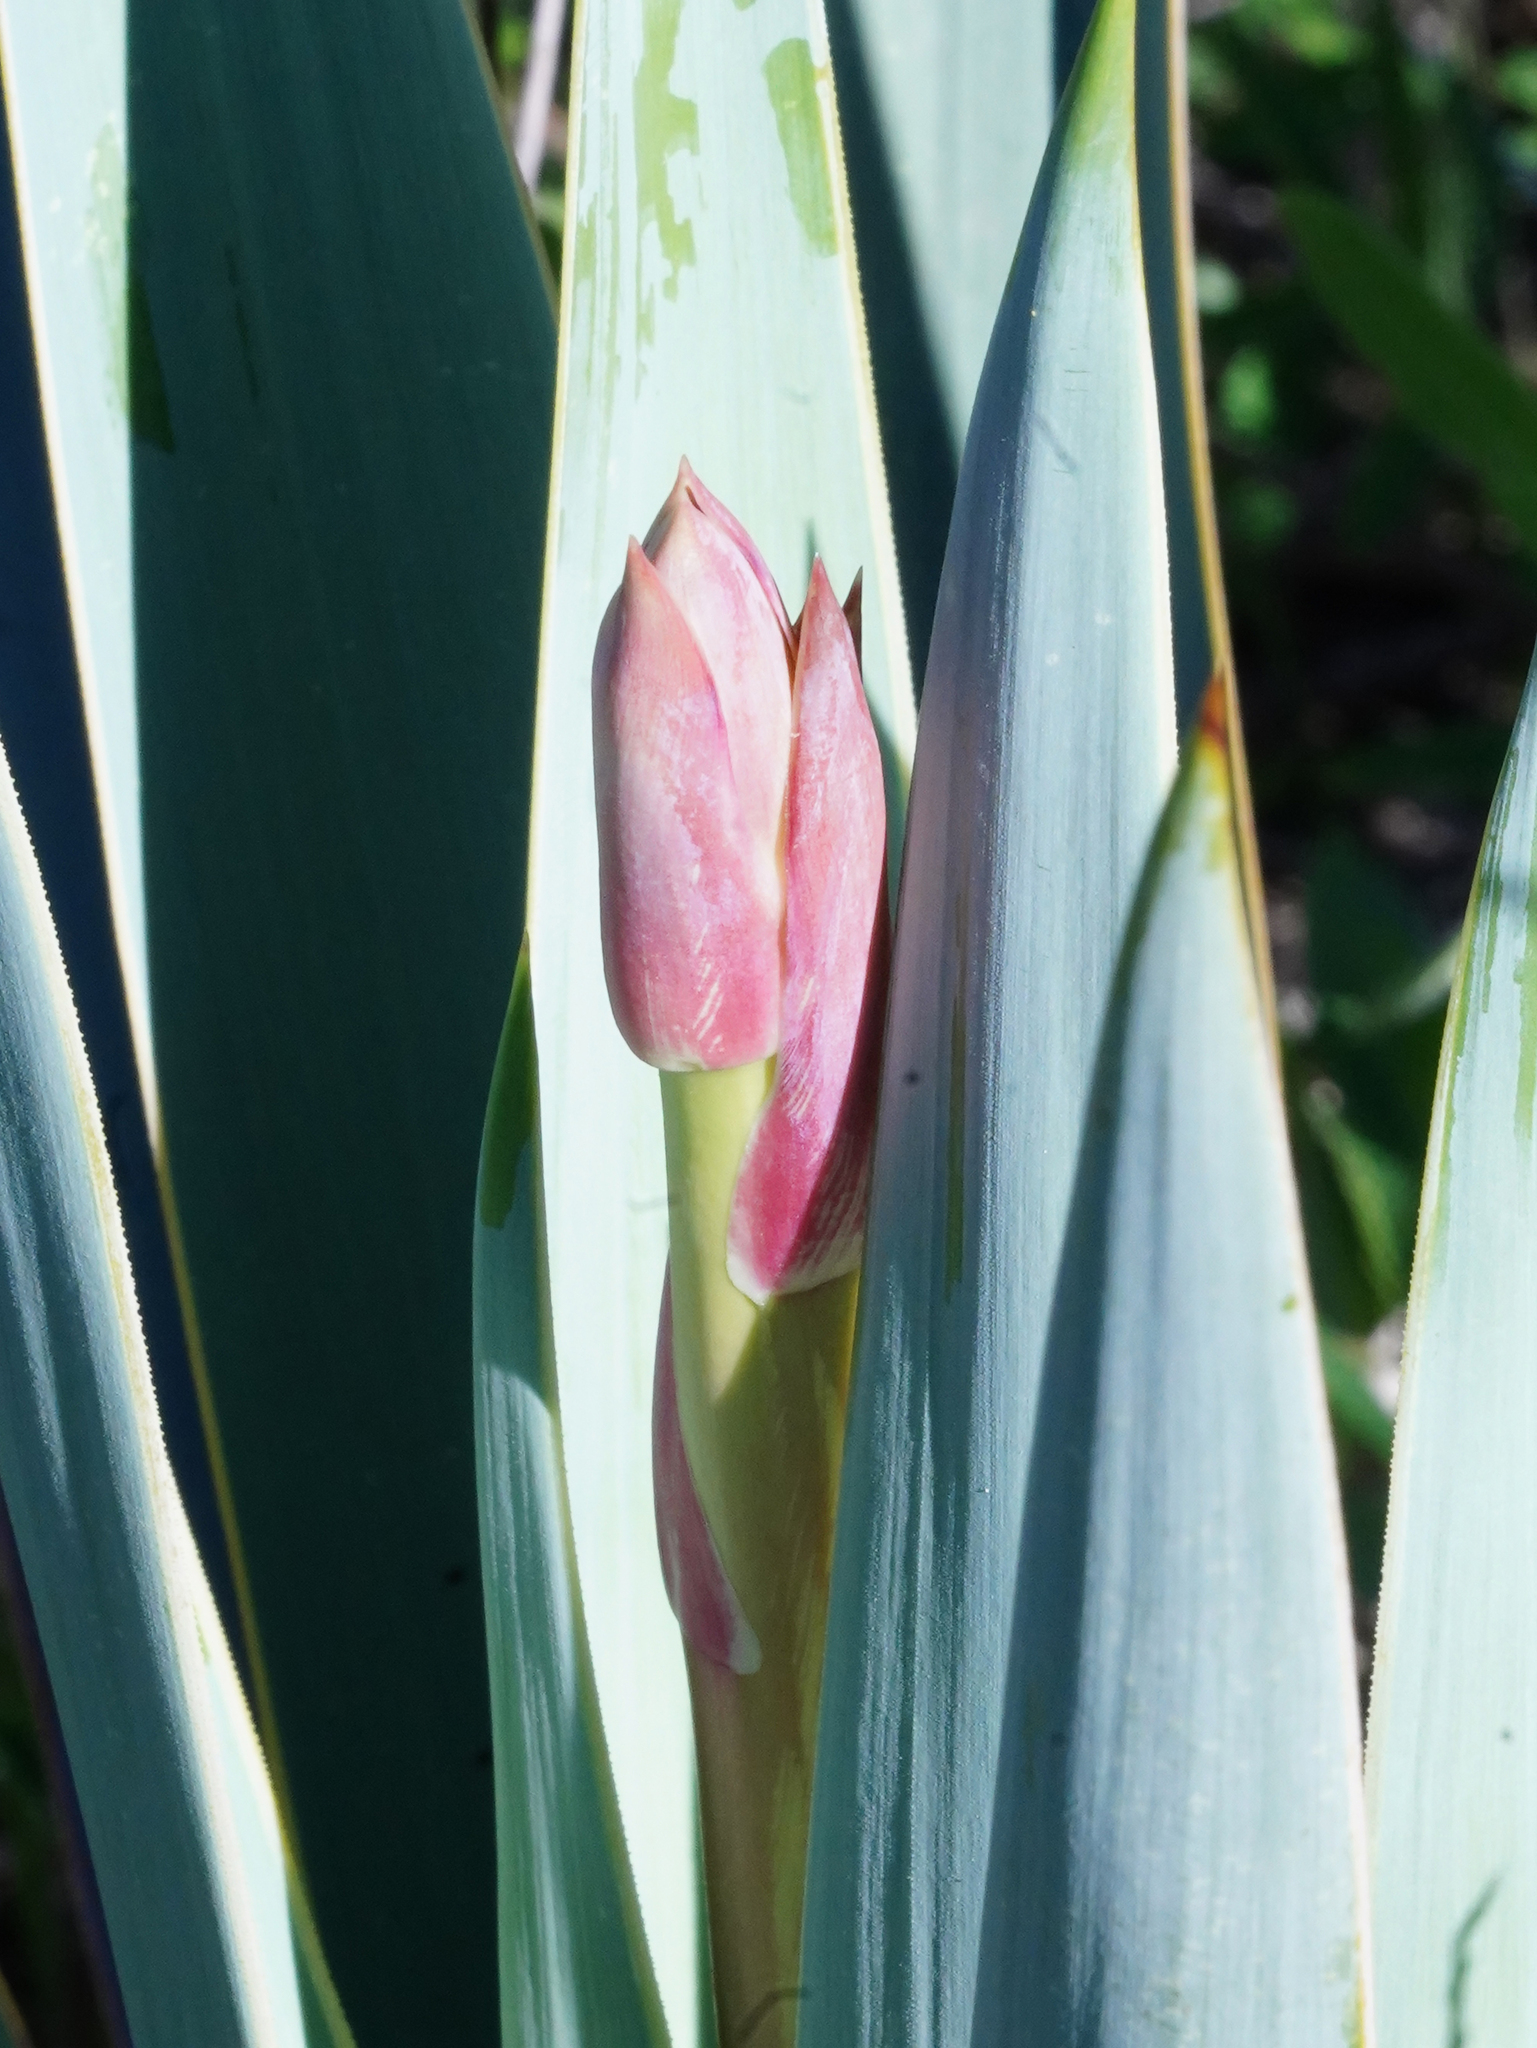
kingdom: Plantae
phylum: Tracheophyta
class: Liliopsida
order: Asparagales
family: Asparagaceae
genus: Yucca
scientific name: Yucca pallida
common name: Pale leaf yucca
